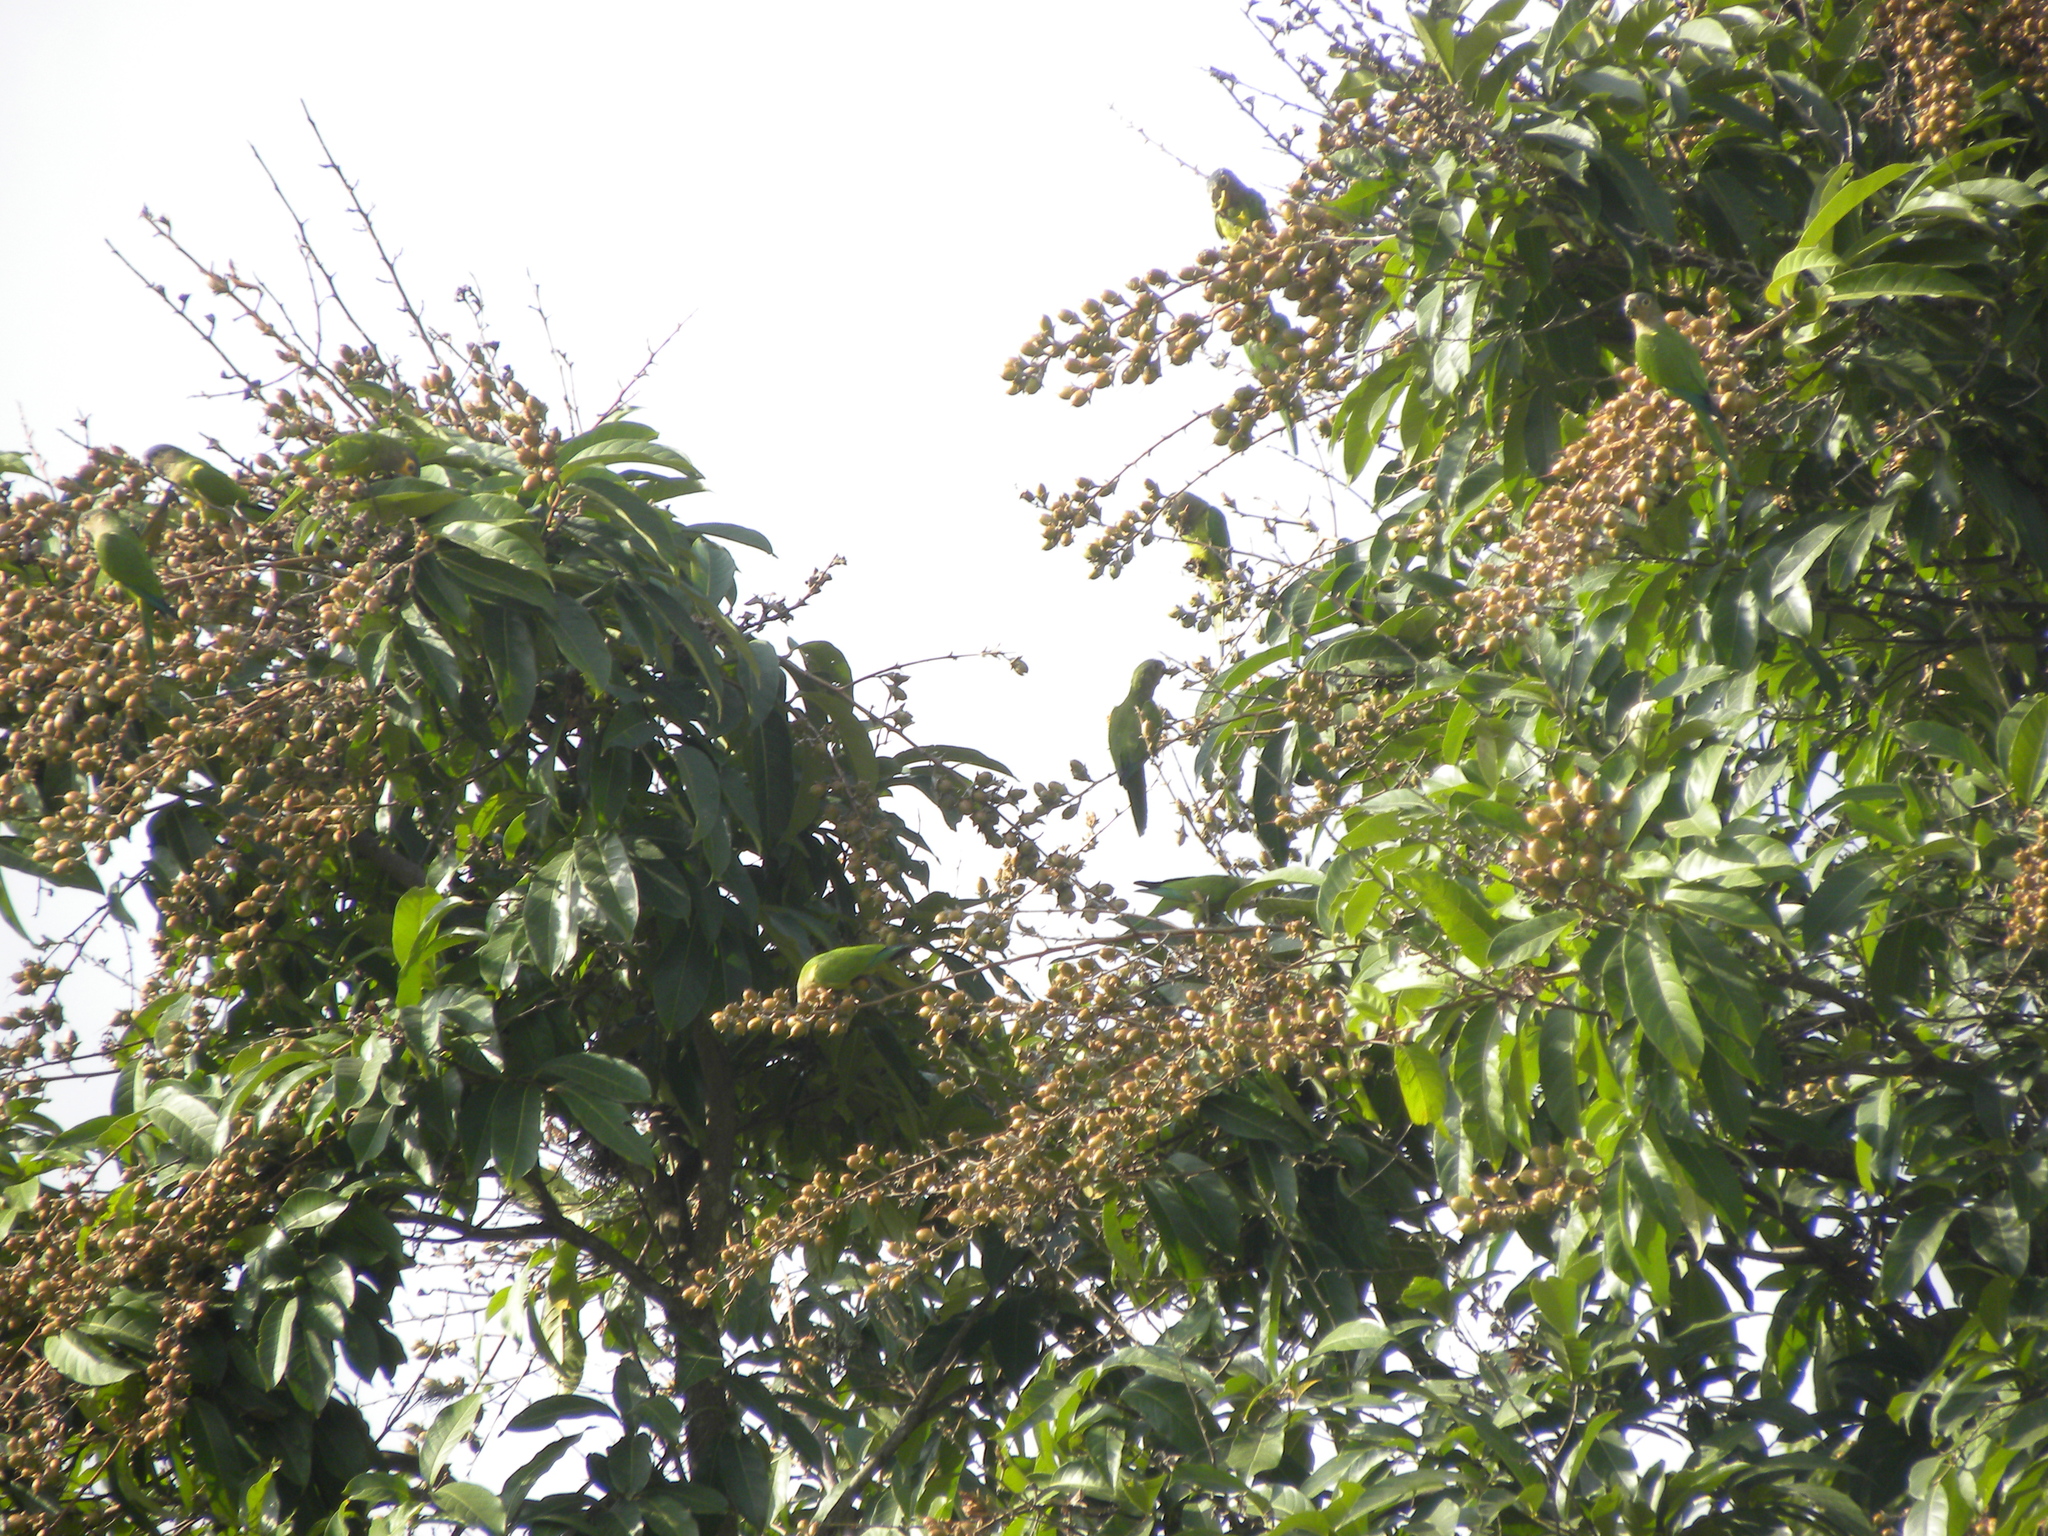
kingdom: Animalia
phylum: Chordata
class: Aves
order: Psittaciformes
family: Psittacidae
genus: Aratinga
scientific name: Aratinga pertinax
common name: Brown-throated parakeet
